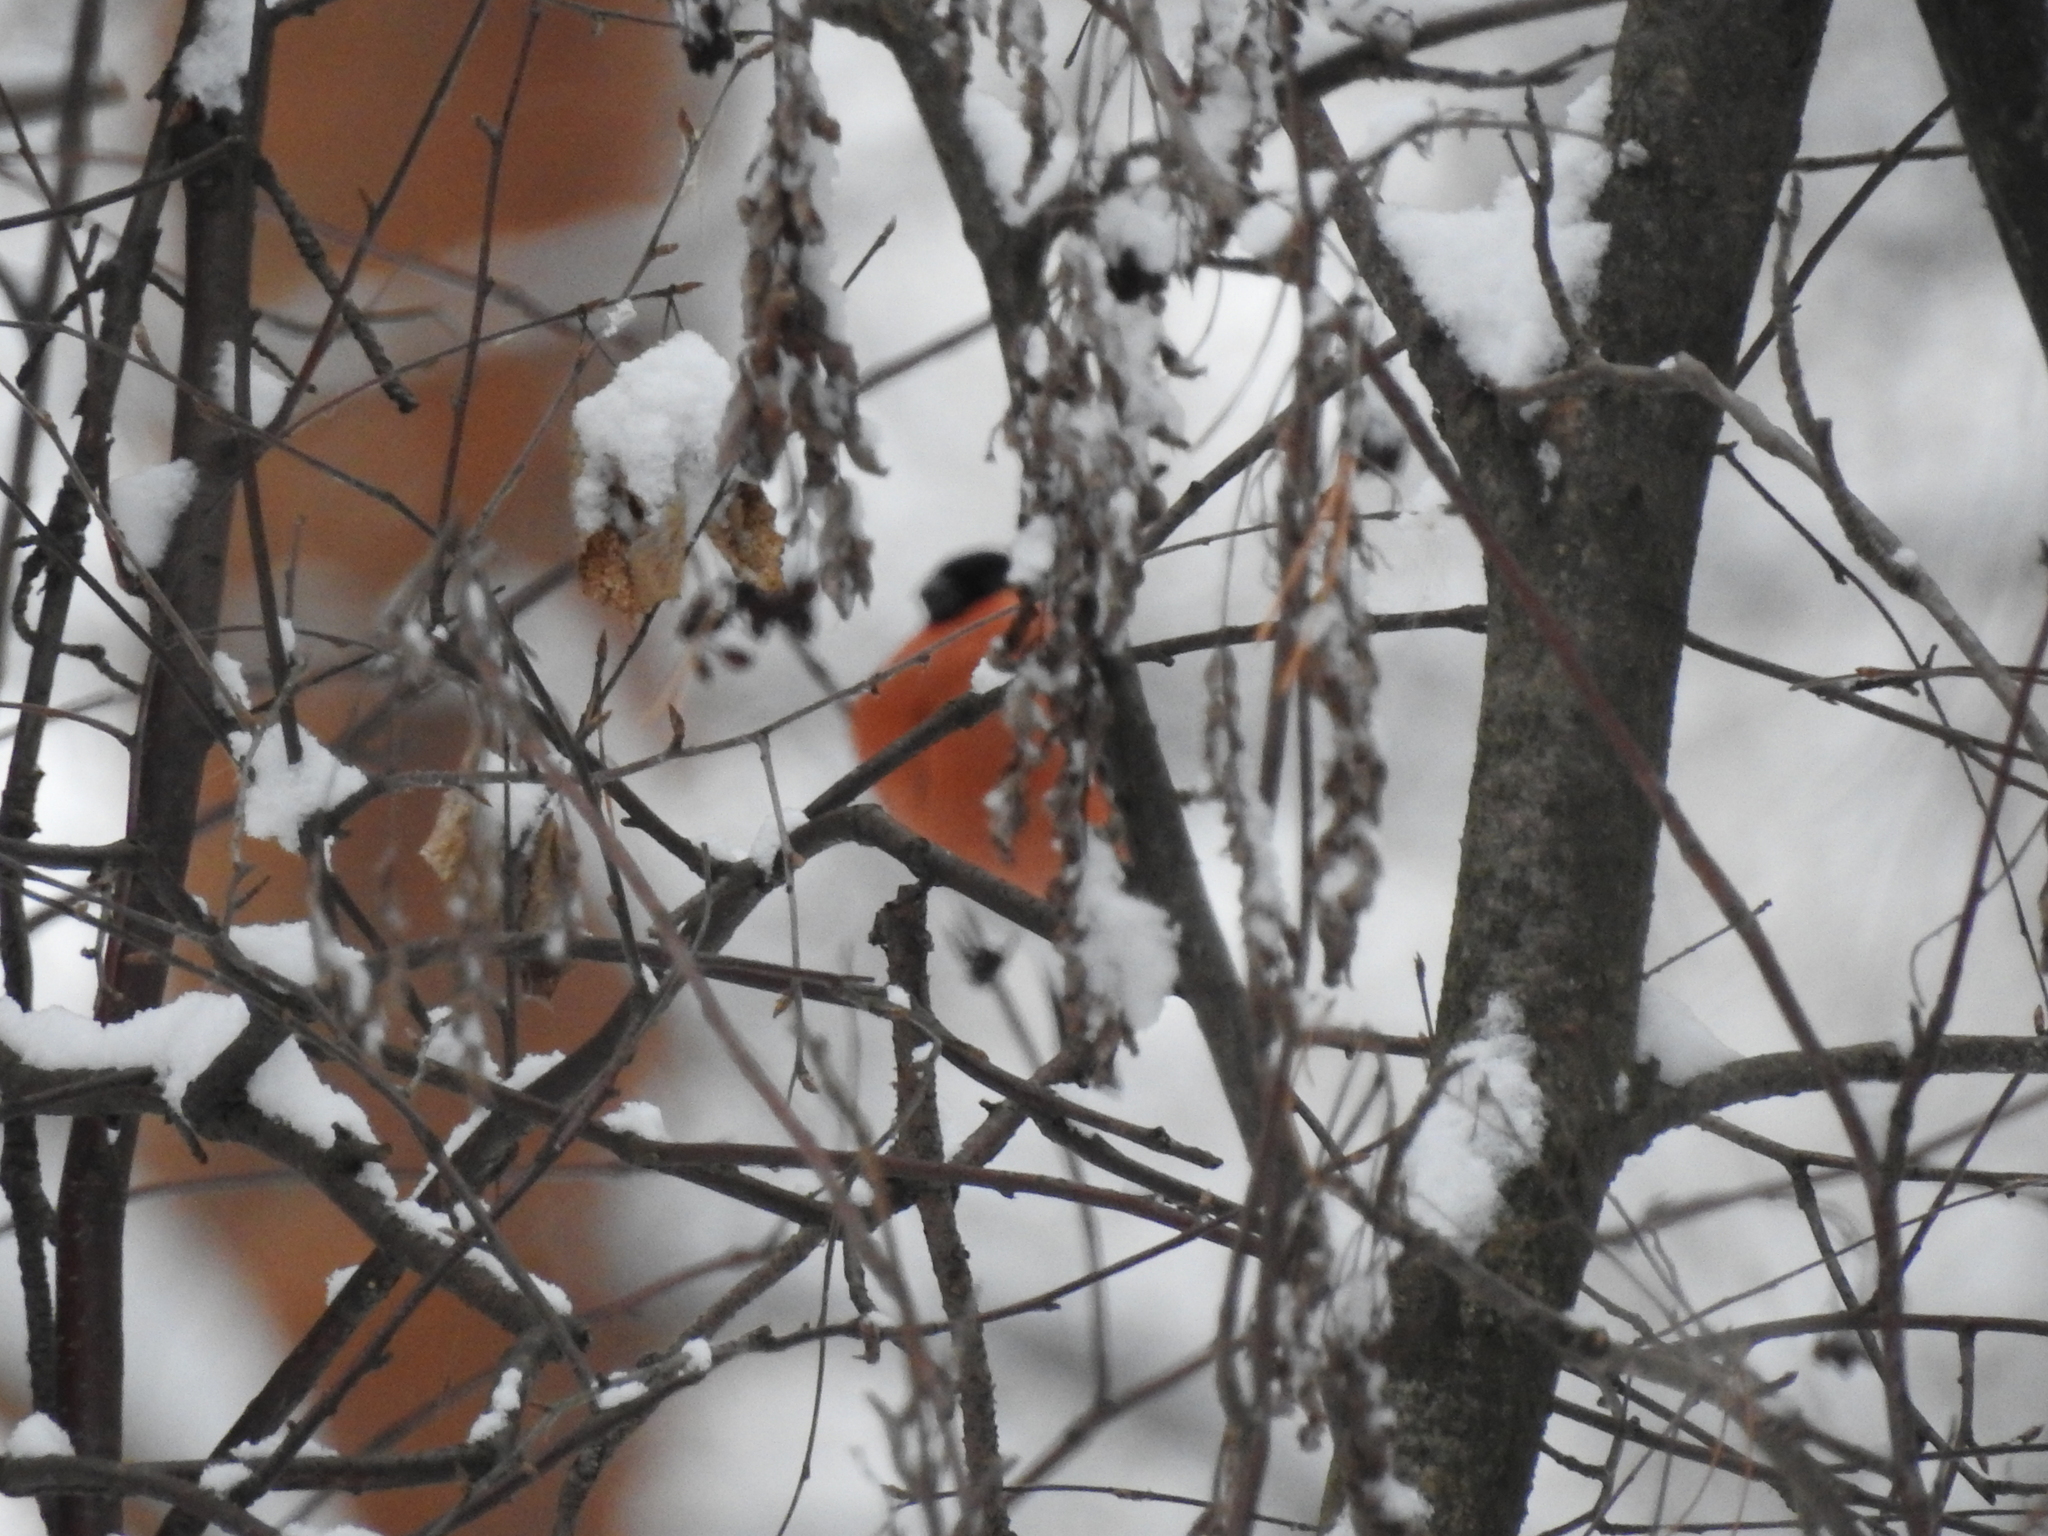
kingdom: Animalia
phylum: Chordata
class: Aves
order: Passeriformes
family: Fringillidae
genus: Pyrrhula
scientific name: Pyrrhula pyrrhula
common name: Eurasian bullfinch
